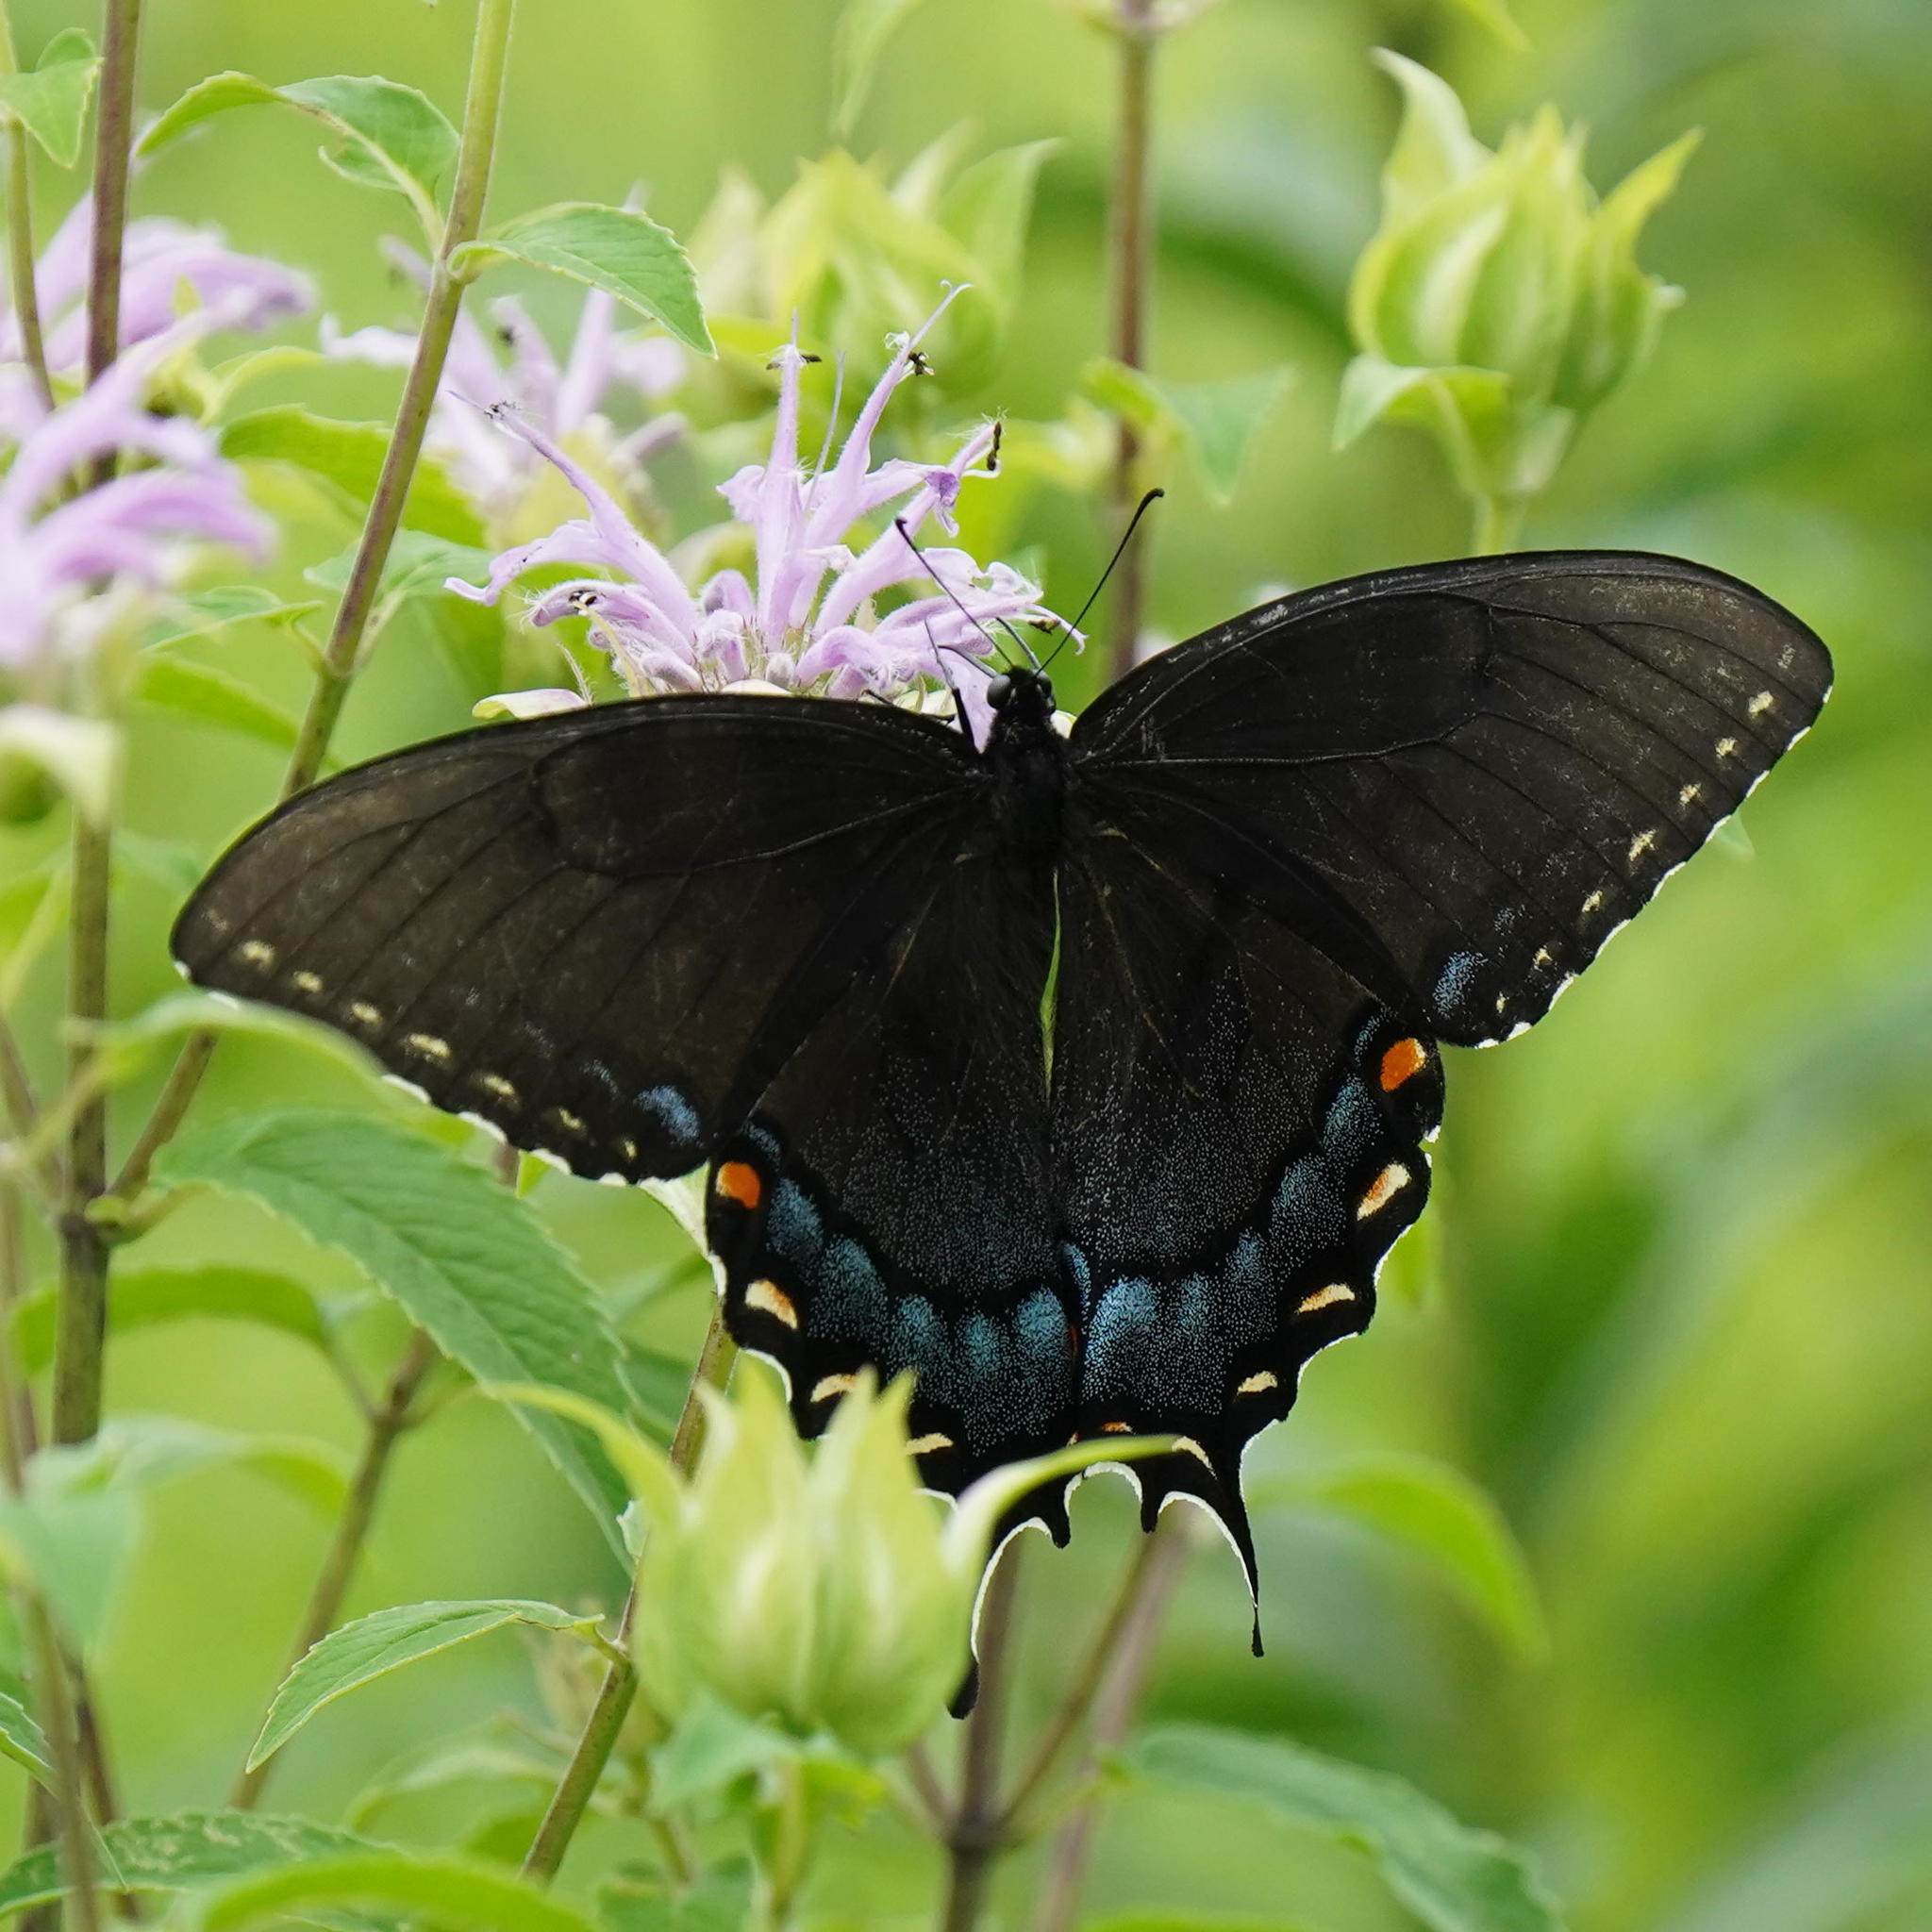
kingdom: Animalia
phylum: Arthropoda
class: Insecta
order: Lepidoptera
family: Papilionidae
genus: Papilio
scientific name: Papilio glaucus
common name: Tiger swallowtail
